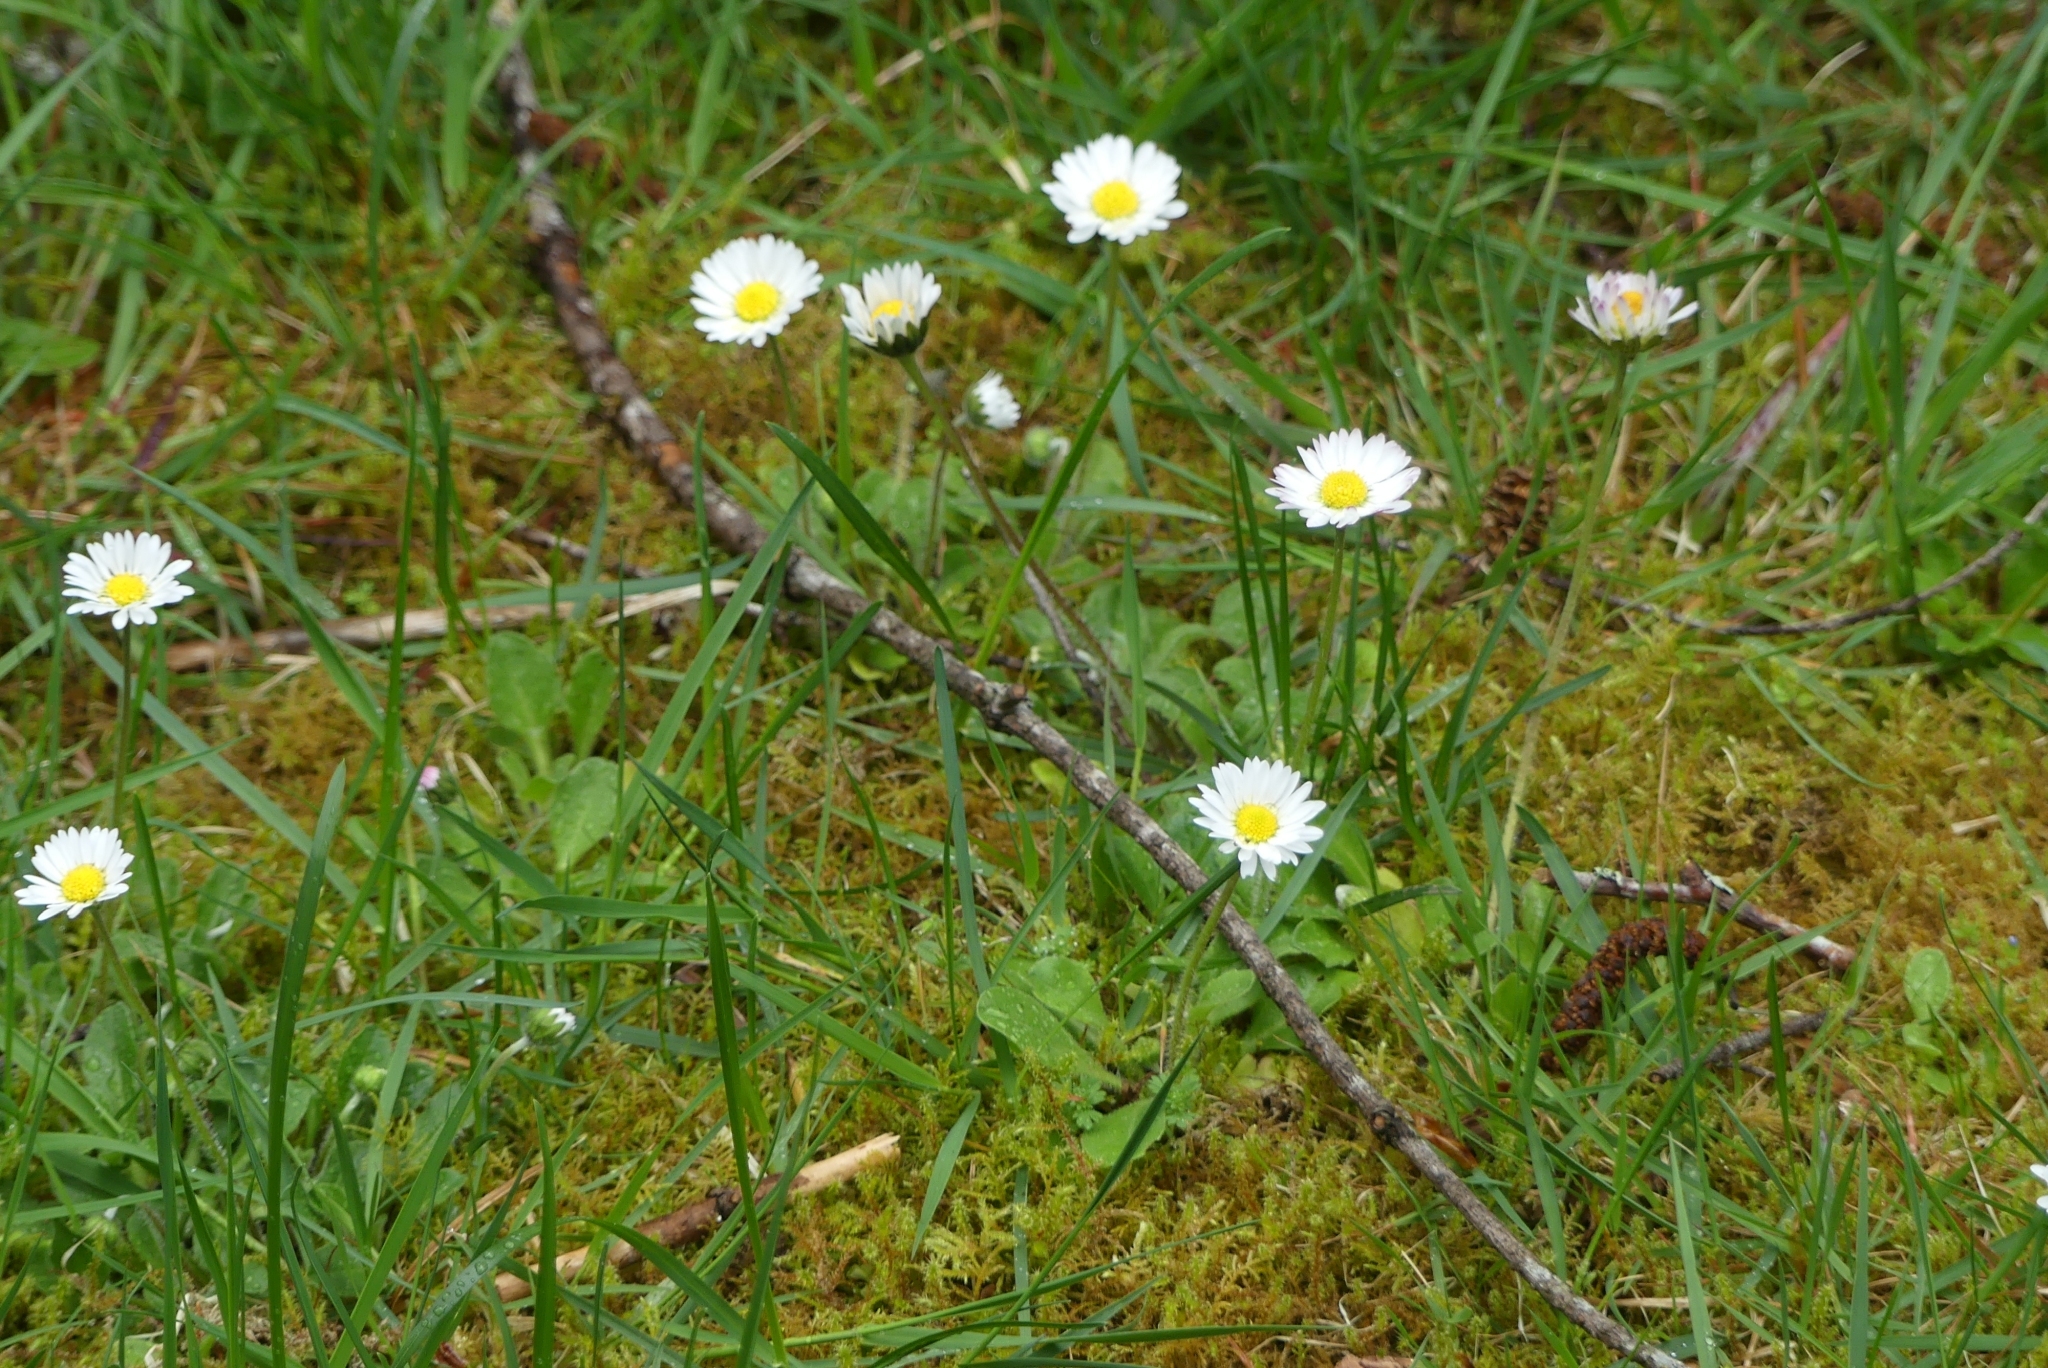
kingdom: Plantae
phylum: Tracheophyta
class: Magnoliopsida
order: Asterales
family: Asteraceae
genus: Bellis
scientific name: Bellis perennis
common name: Lawndaisy
